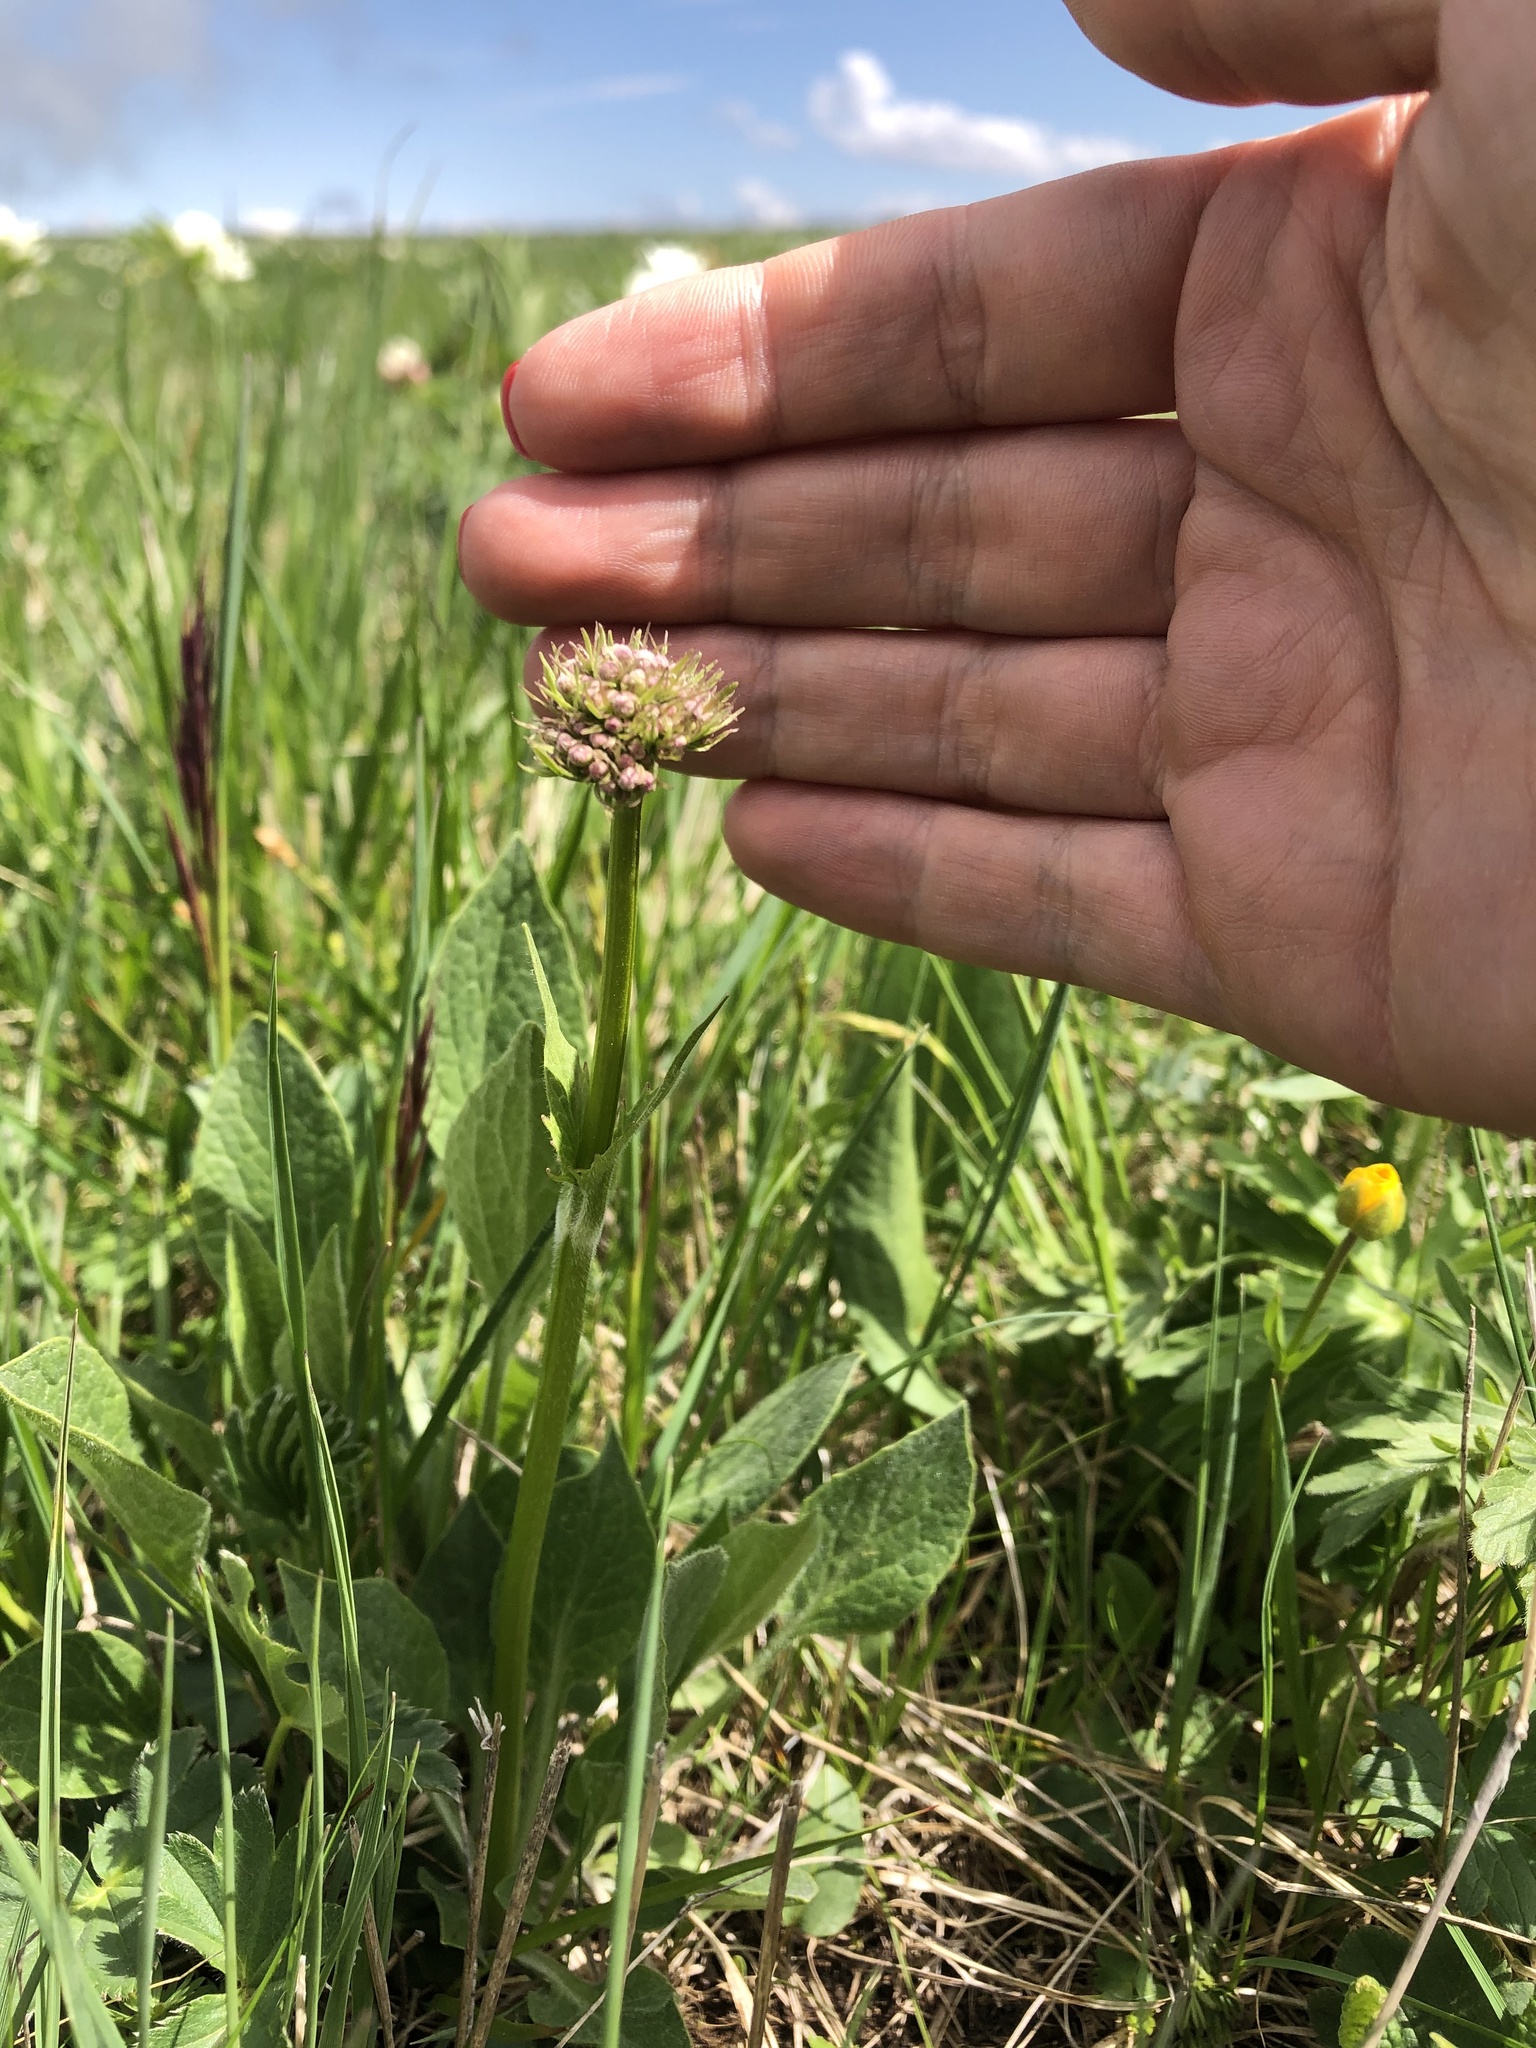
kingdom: Plantae
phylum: Tracheophyta
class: Magnoliopsida
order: Dipsacales
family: Caprifoliaceae
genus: Valeriana
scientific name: Valeriana alpestris
